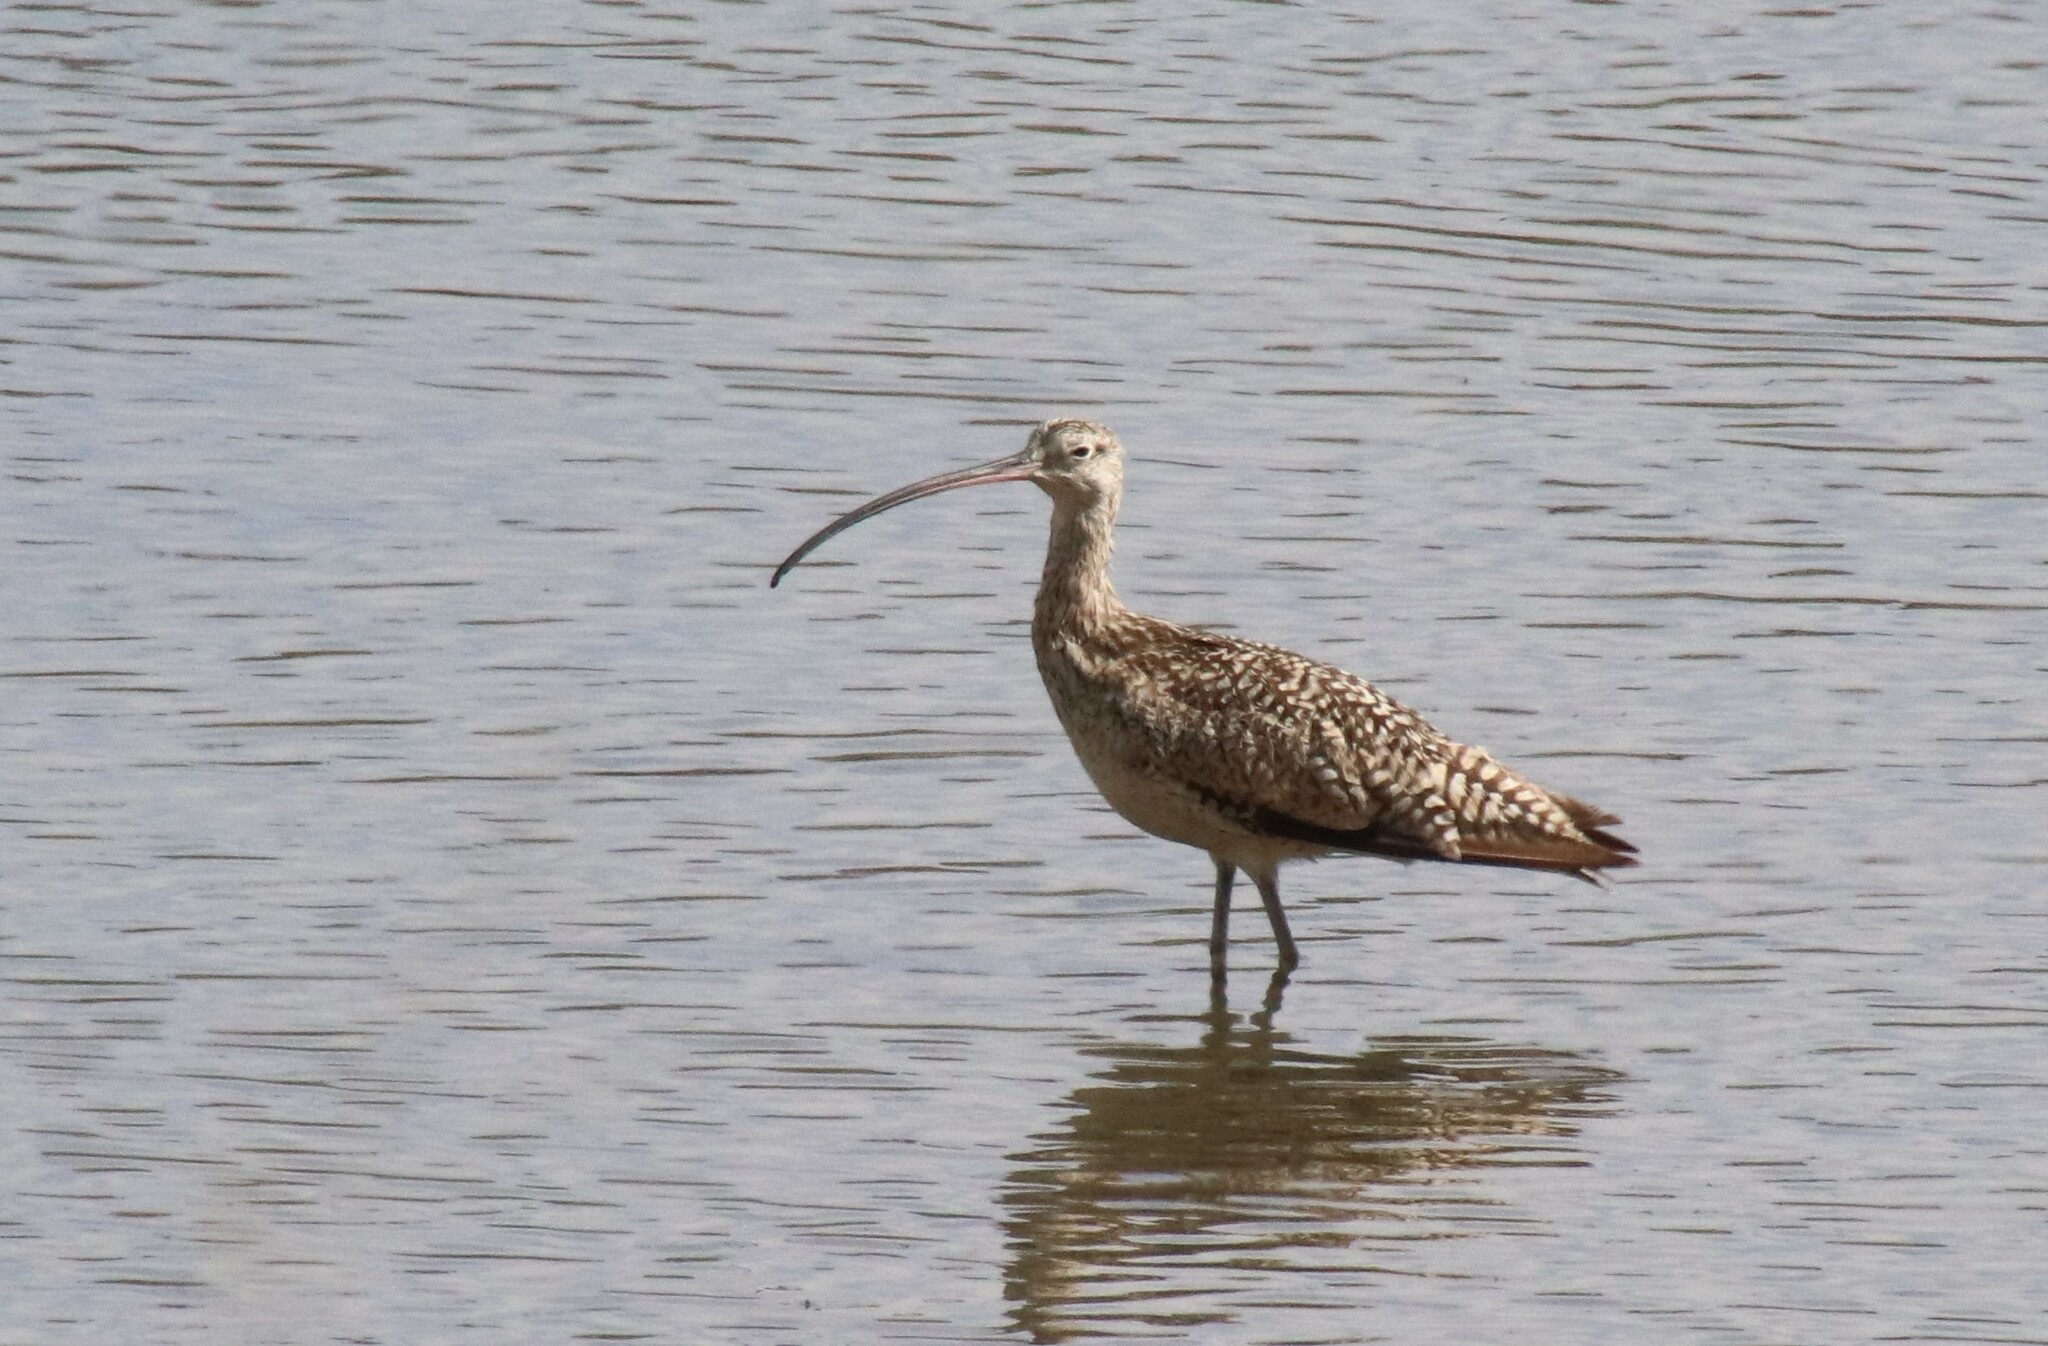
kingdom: Animalia
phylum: Chordata
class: Aves
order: Charadriiformes
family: Scolopacidae
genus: Numenius
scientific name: Numenius americanus
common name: Long-billed curlew
